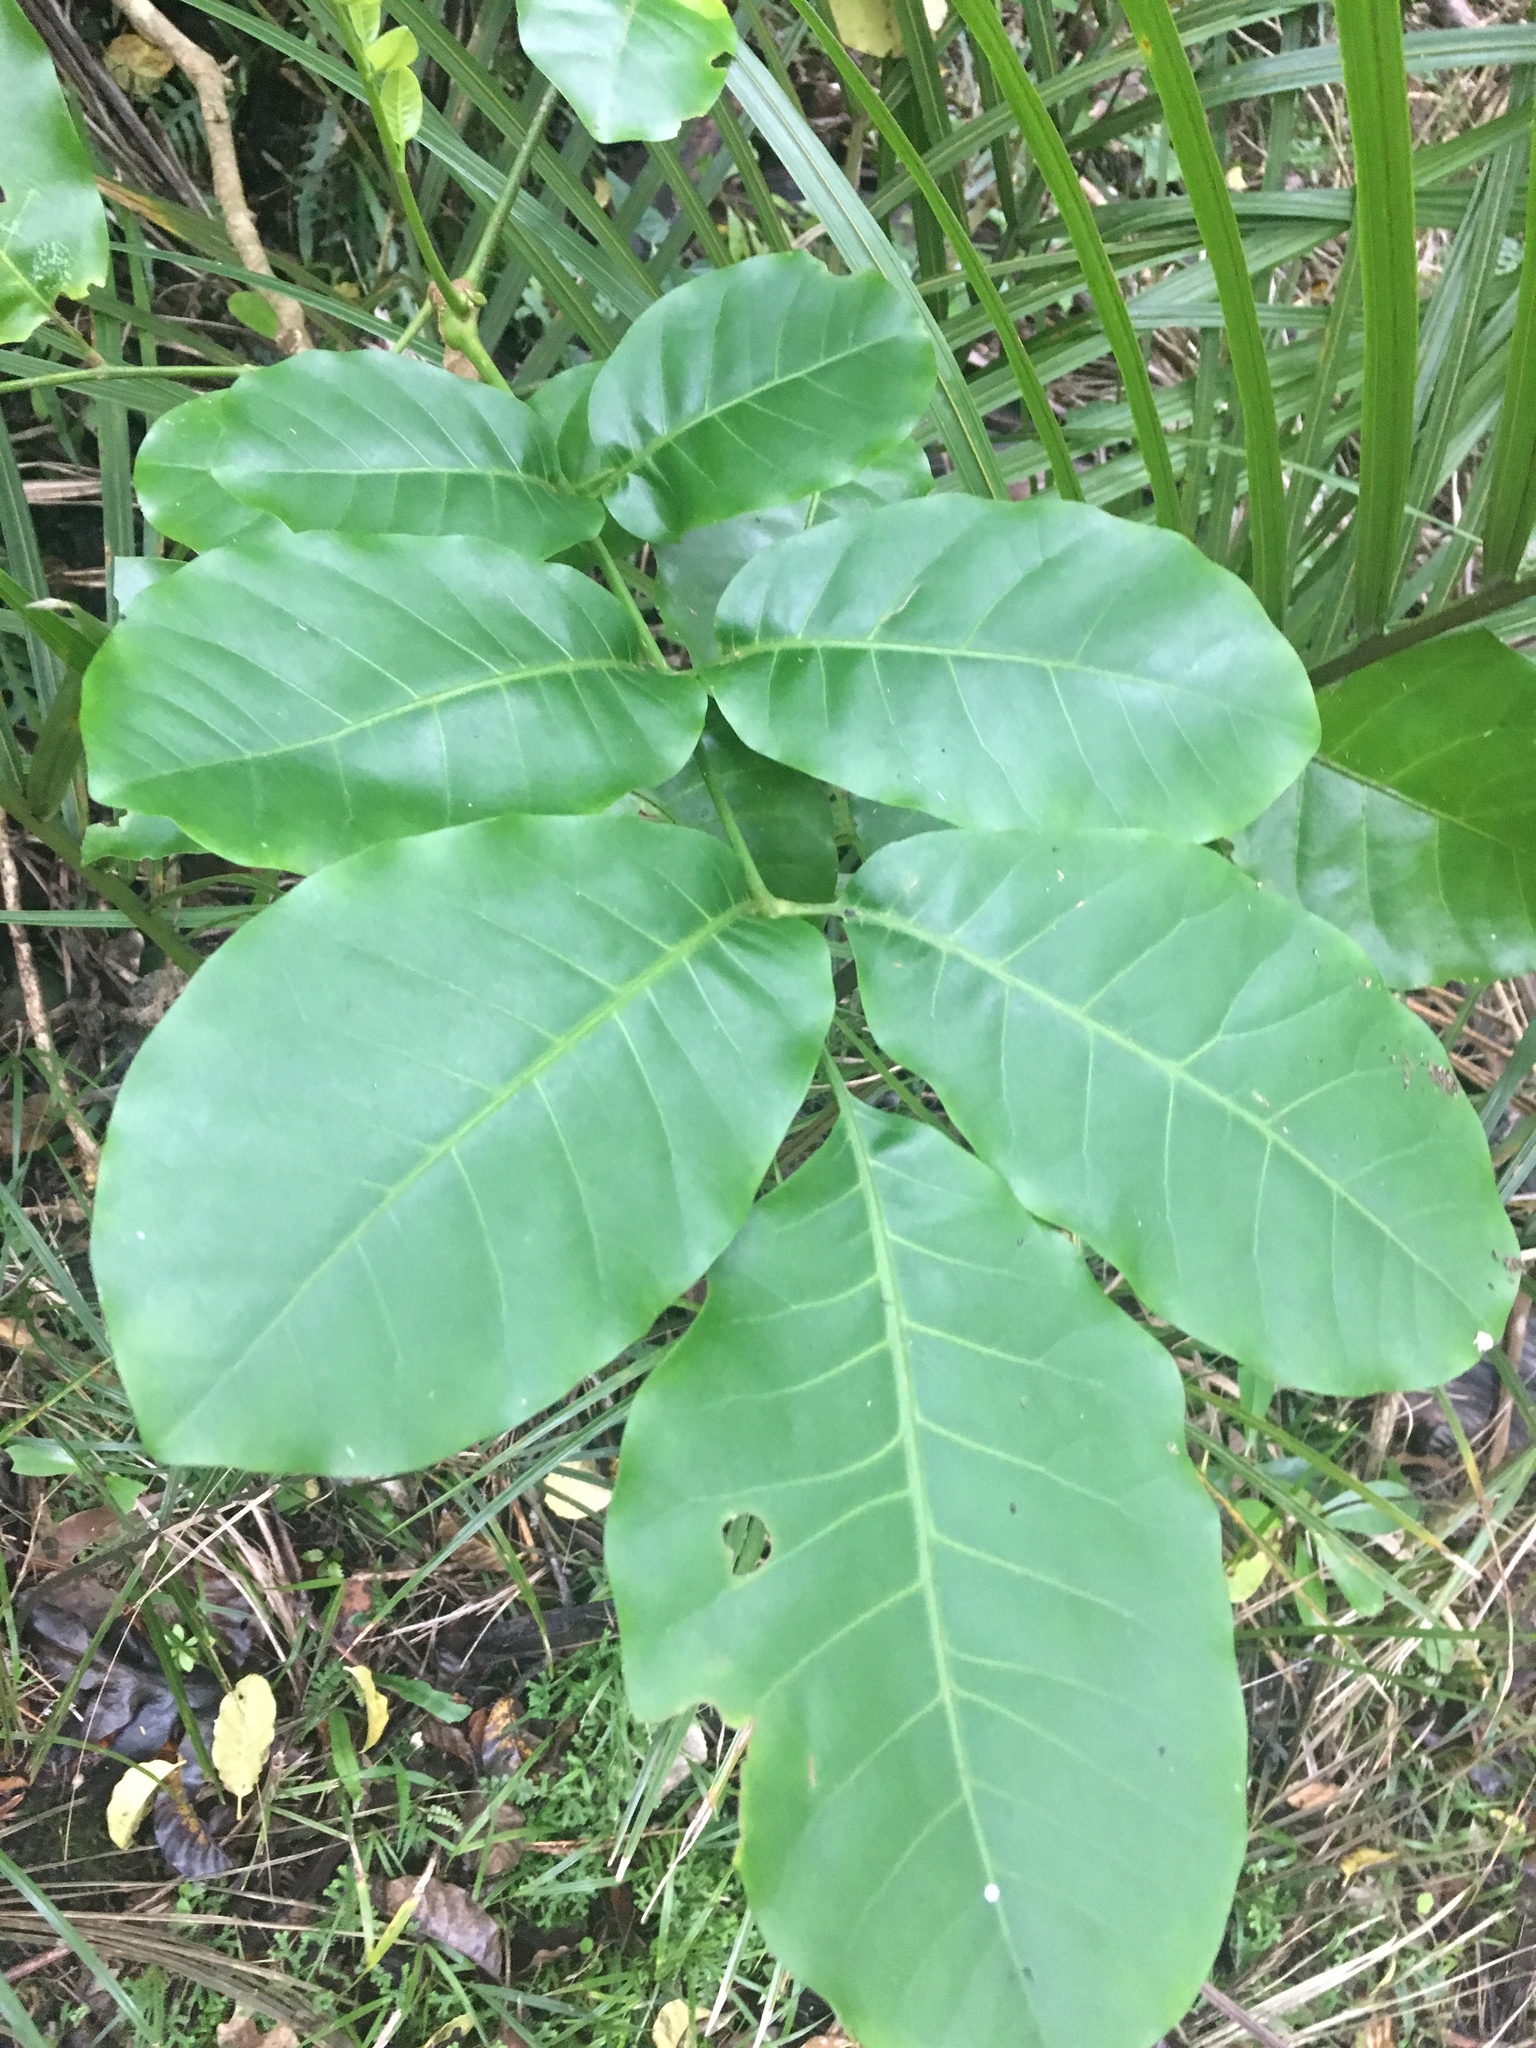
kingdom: Plantae
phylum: Tracheophyta
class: Magnoliopsida
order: Sapindales
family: Meliaceae
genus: Didymocheton
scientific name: Didymocheton spectabilis
